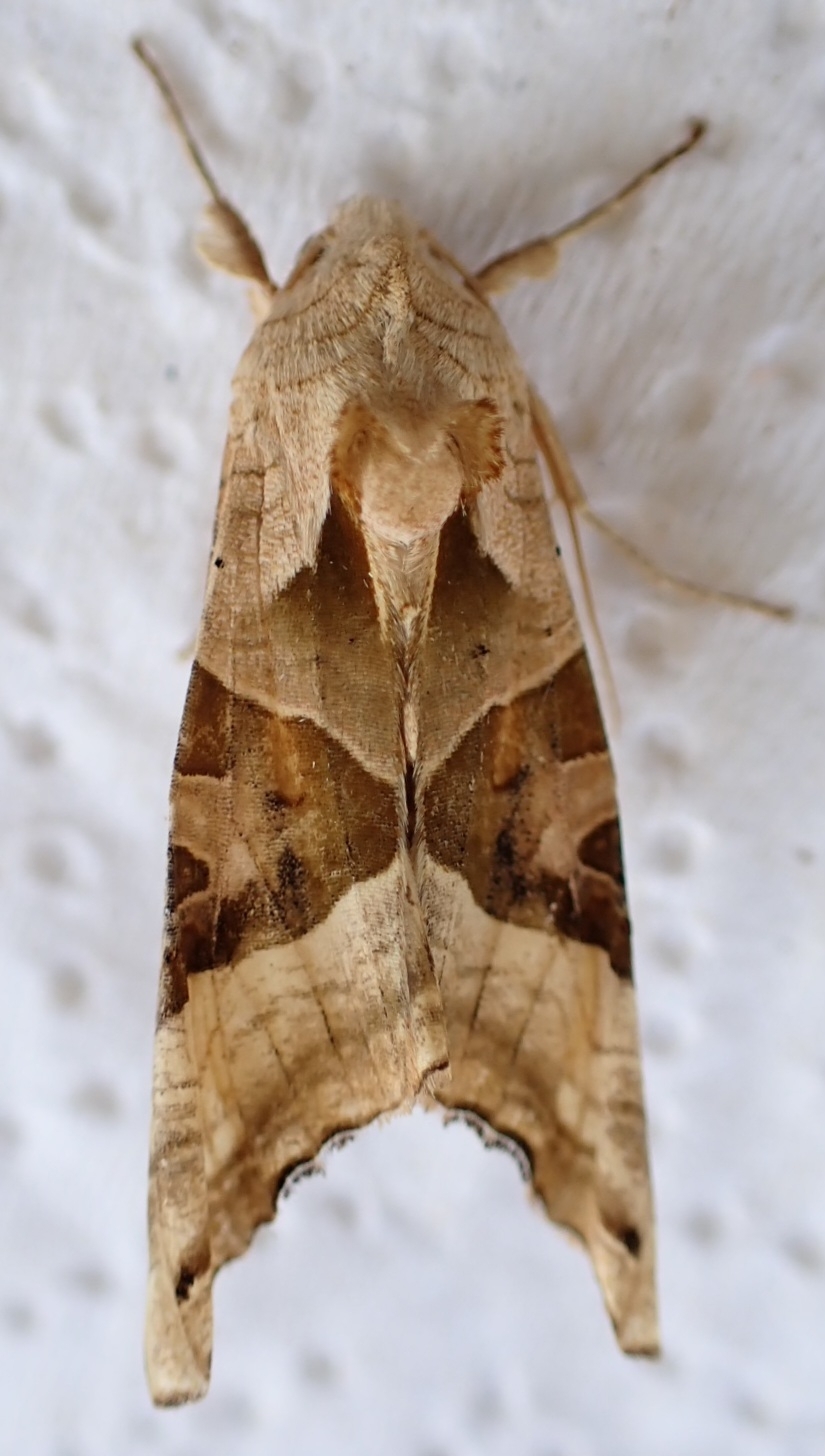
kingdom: Animalia
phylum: Arthropoda
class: Insecta
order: Lepidoptera
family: Noctuidae
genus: Phlogophora
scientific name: Phlogophora meticulosa
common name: Angle shades
